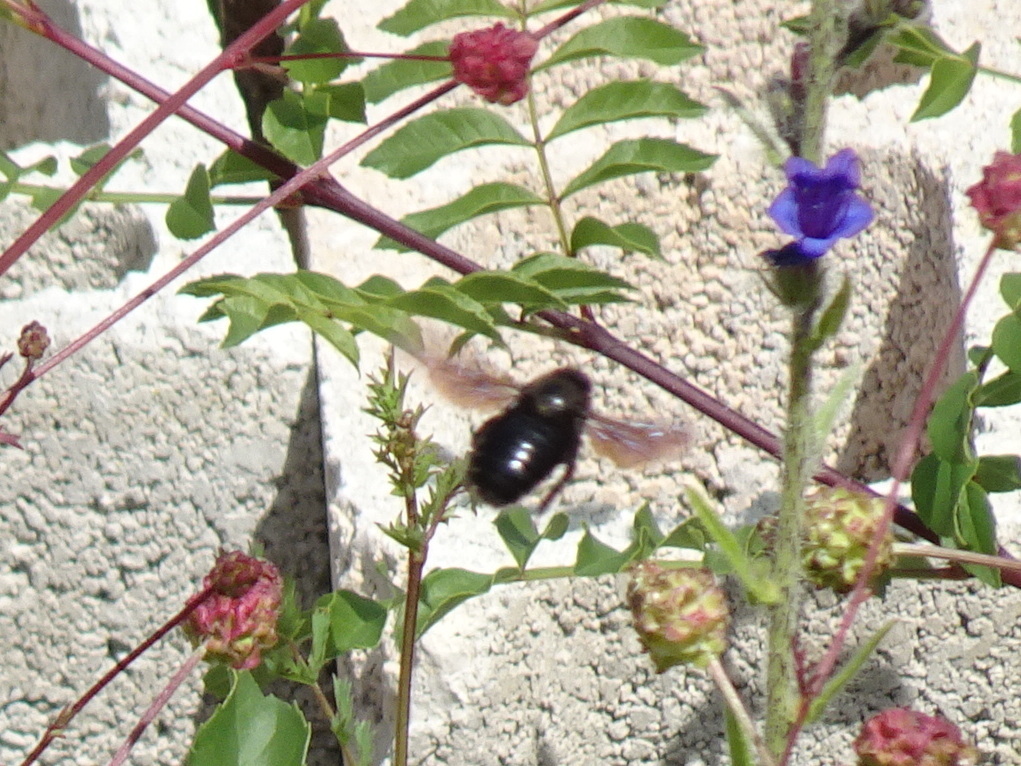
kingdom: Animalia
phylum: Arthropoda
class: Insecta
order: Hymenoptera
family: Apidae
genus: Xylocopa
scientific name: Xylocopa violacea
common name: Violet carpenter bee
